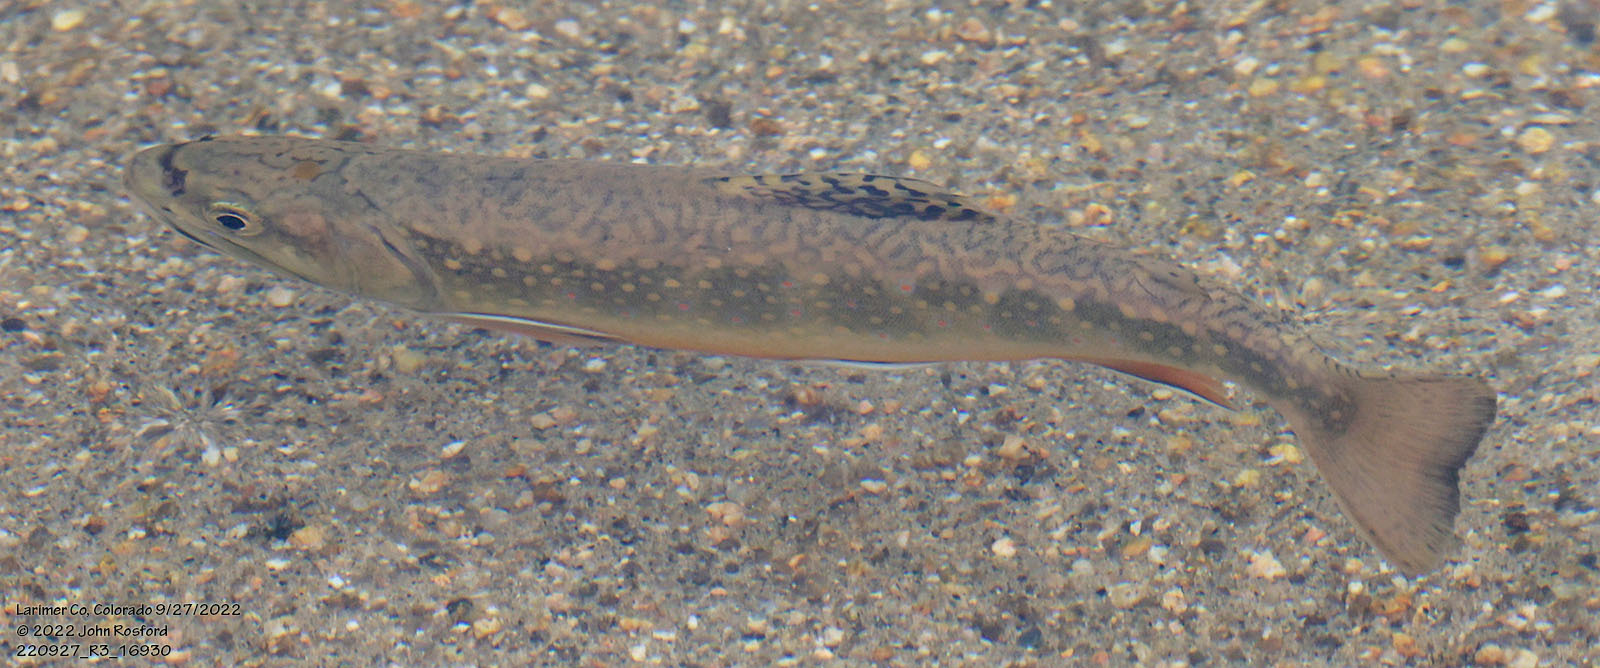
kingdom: Animalia
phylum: Chordata
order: Salmoniformes
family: Salmonidae
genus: Salvelinus
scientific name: Salvelinus fontinalis
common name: Brook trout
